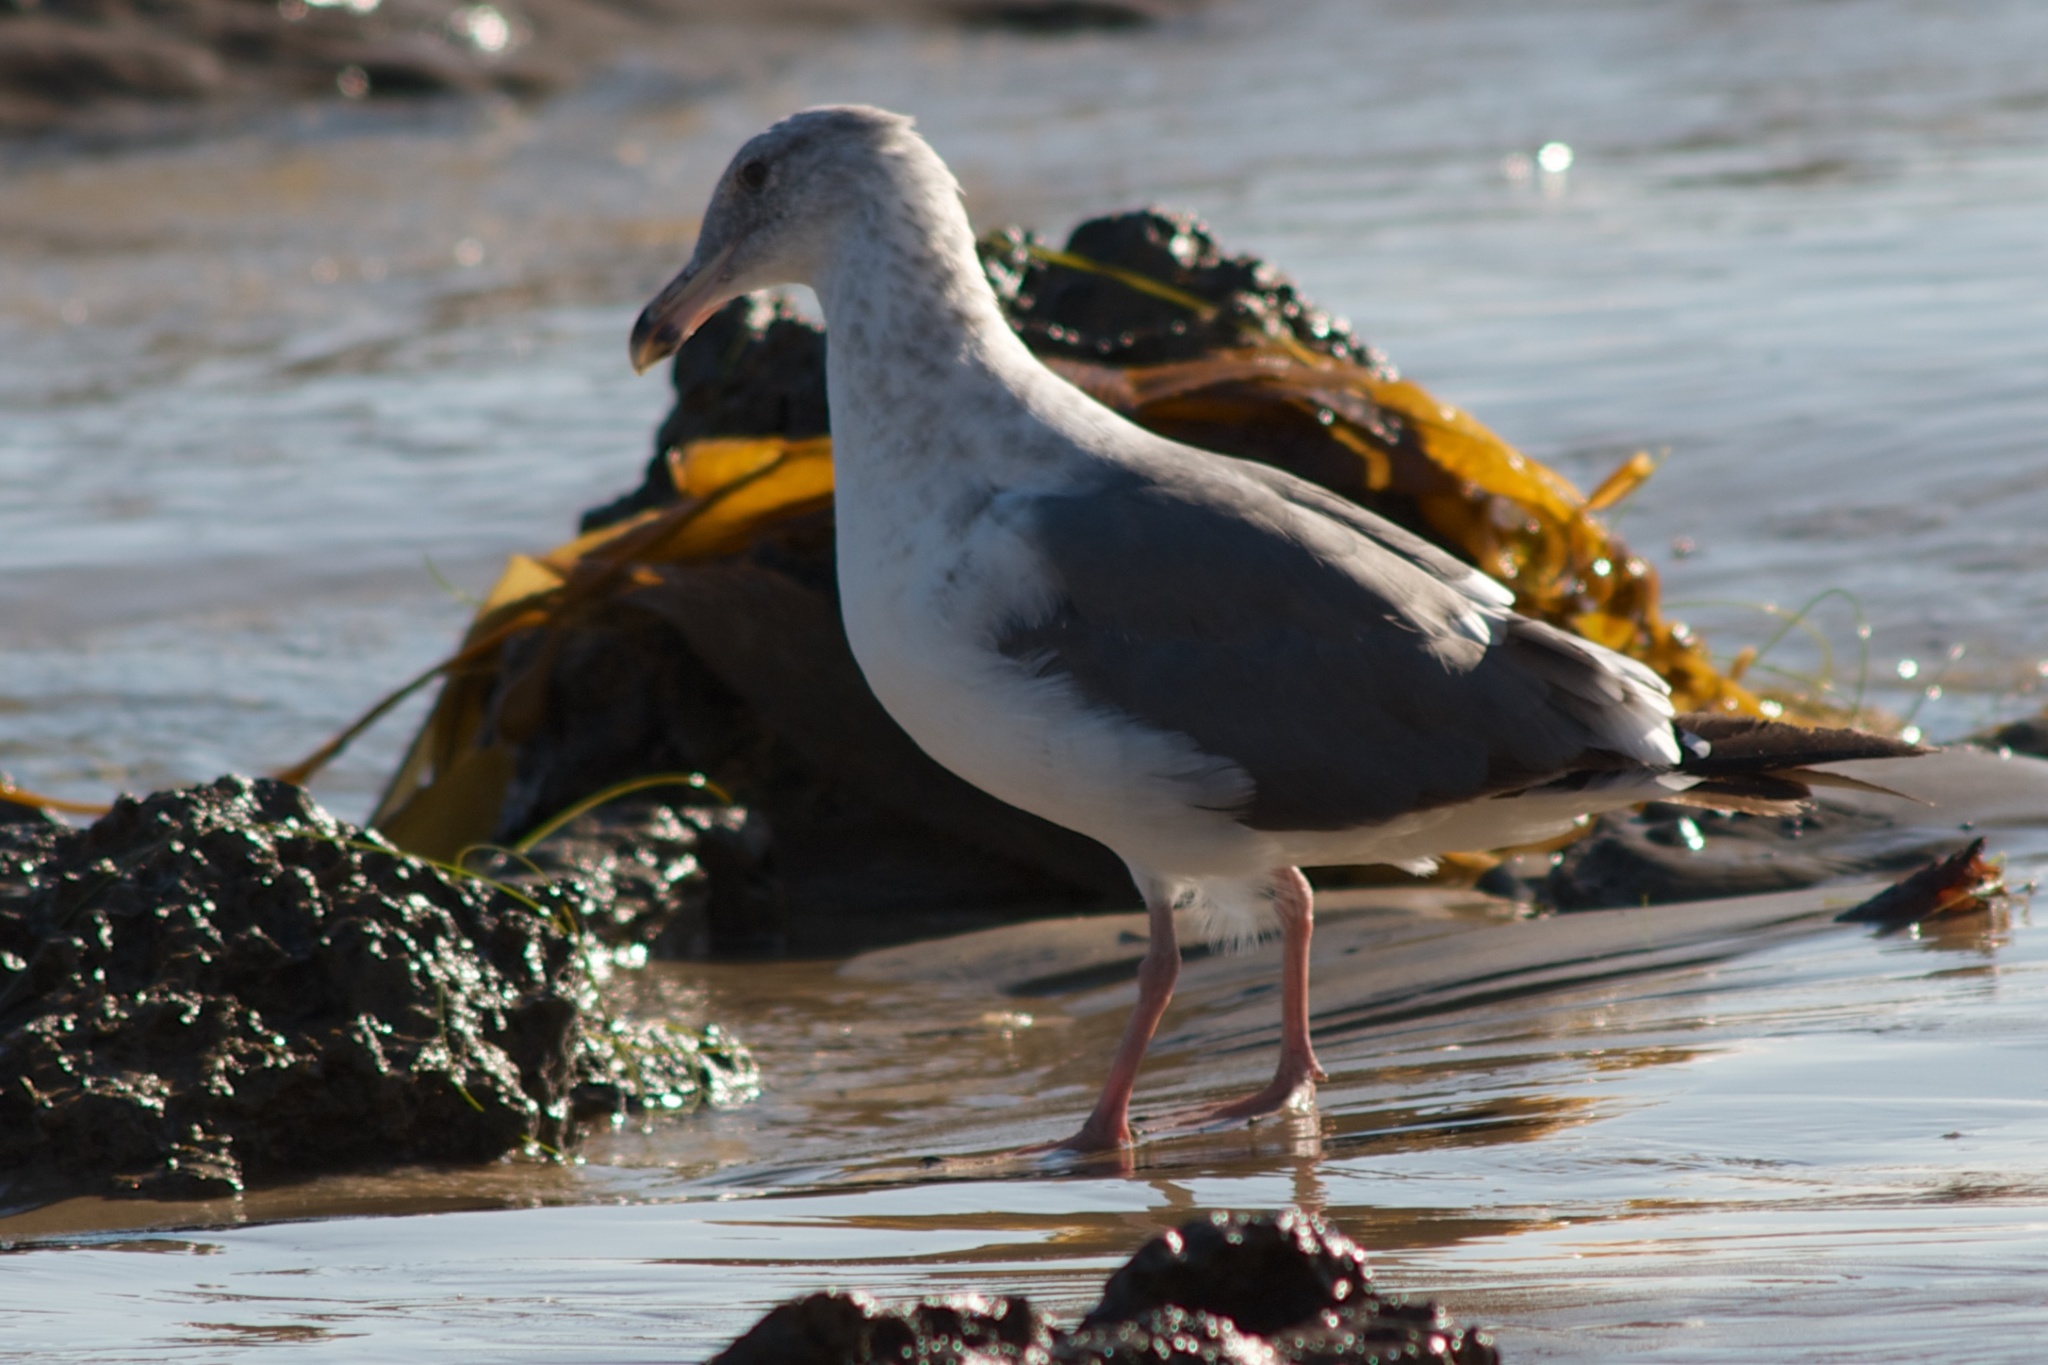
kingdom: Animalia
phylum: Chordata
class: Aves
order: Charadriiformes
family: Laridae
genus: Larus
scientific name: Larus occidentalis
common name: Western gull
